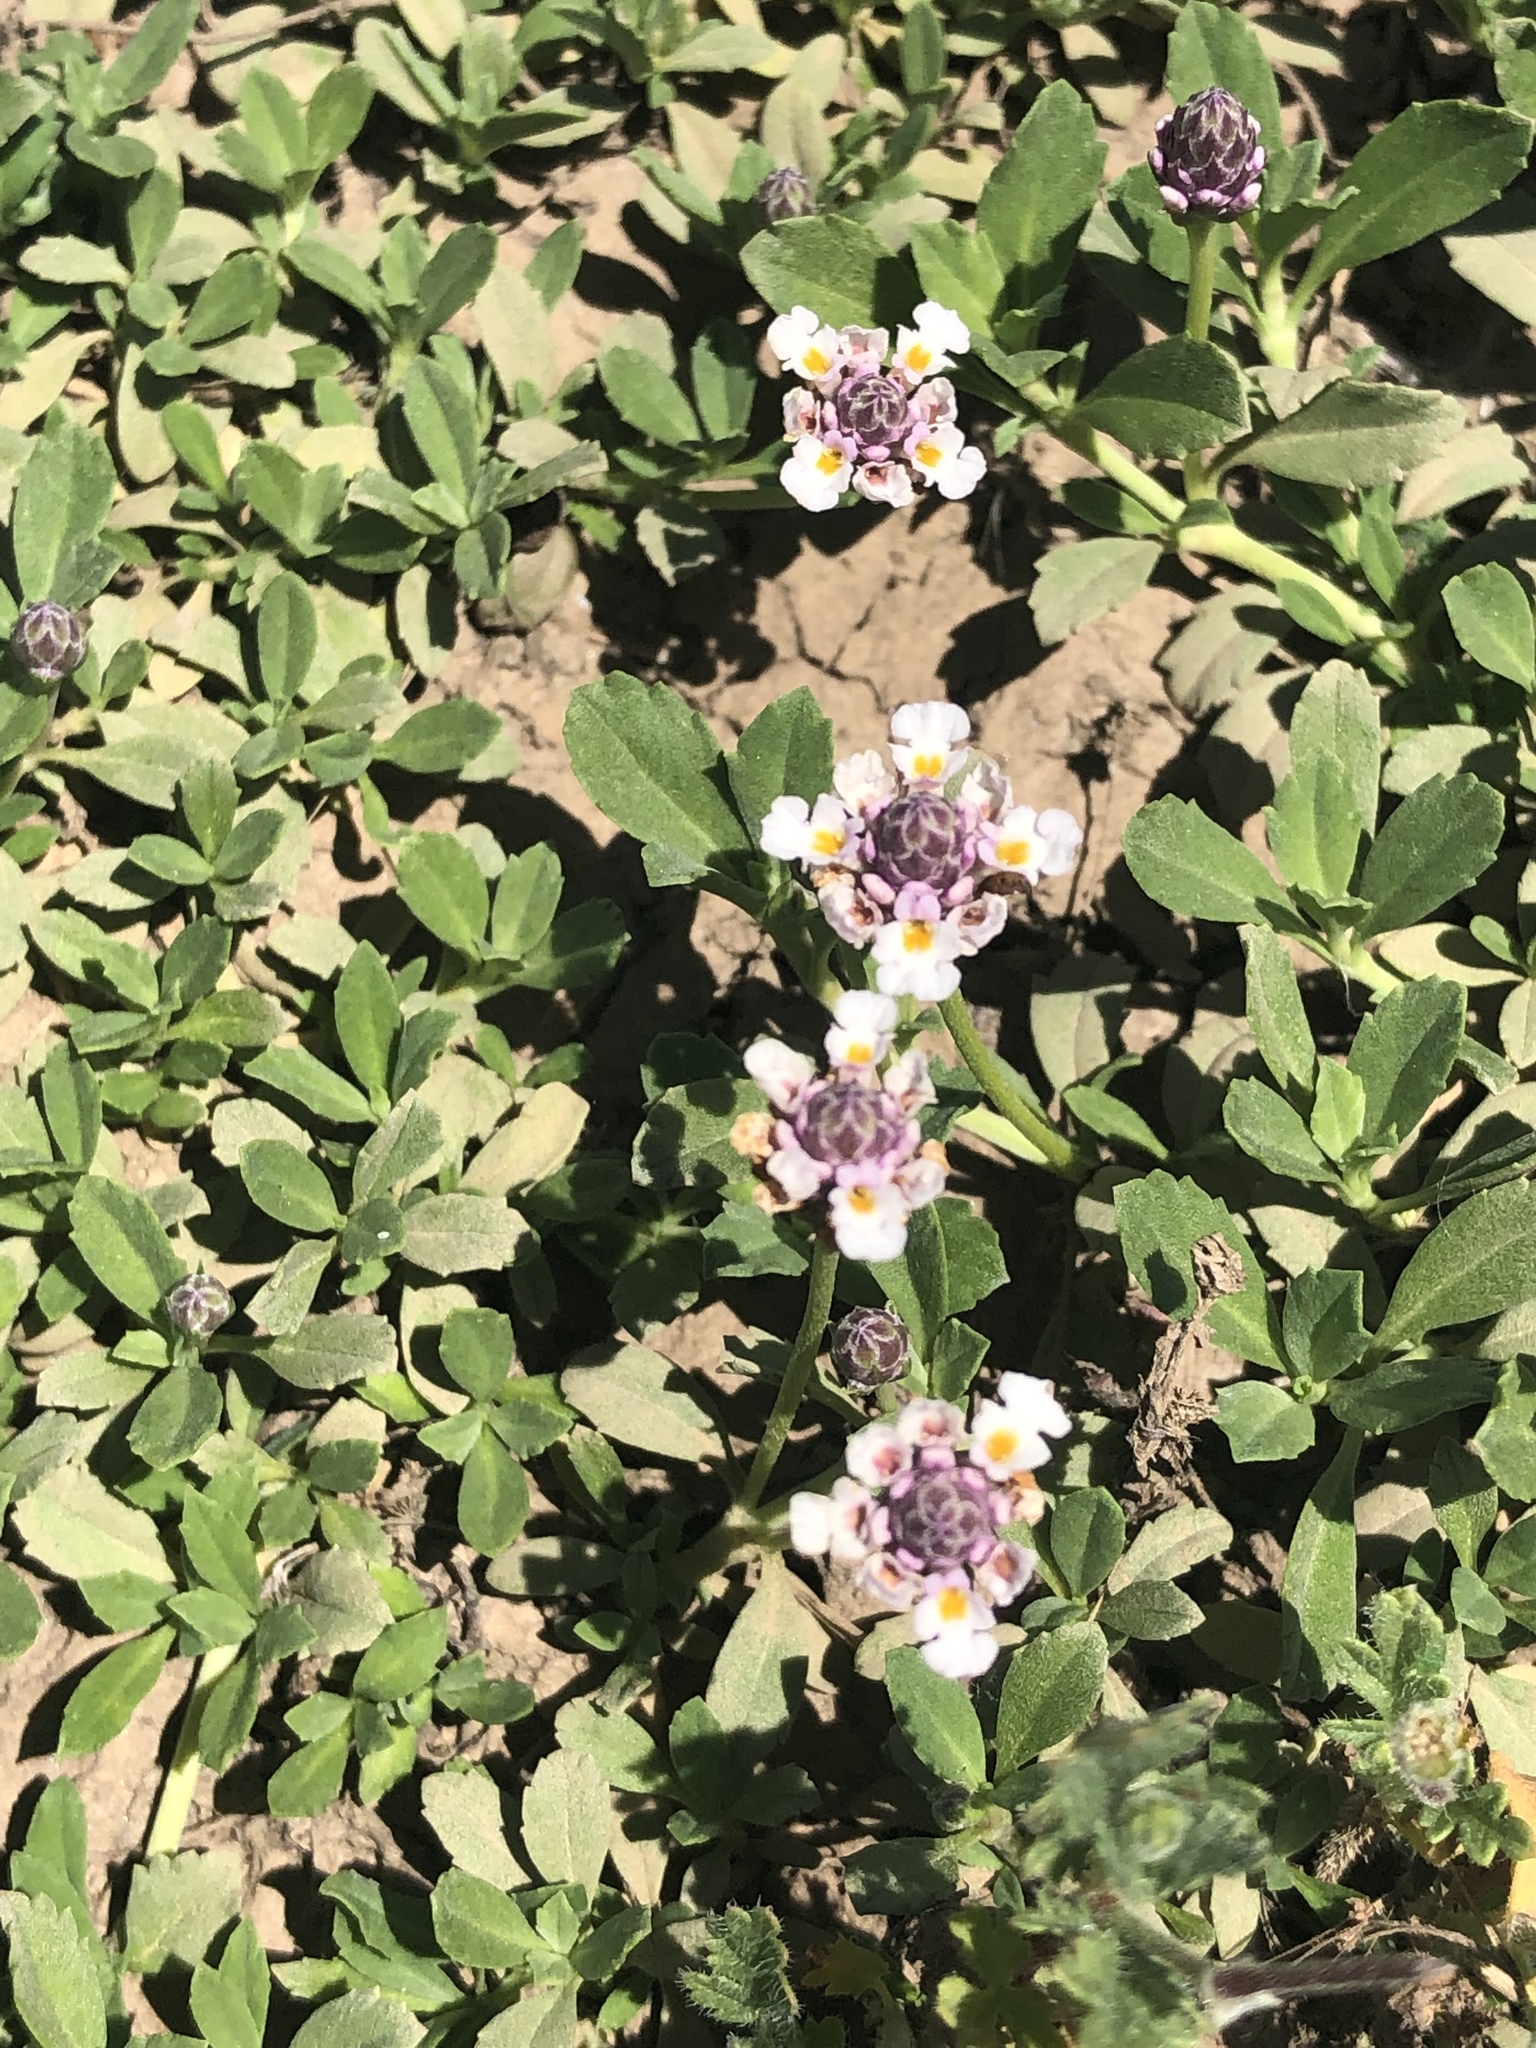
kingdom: Plantae
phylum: Tracheophyta
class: Magnoliopsida
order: Lamiales
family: Verbenaceae
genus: Phyla
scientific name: Phyla nodiflora
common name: Frogfruit
